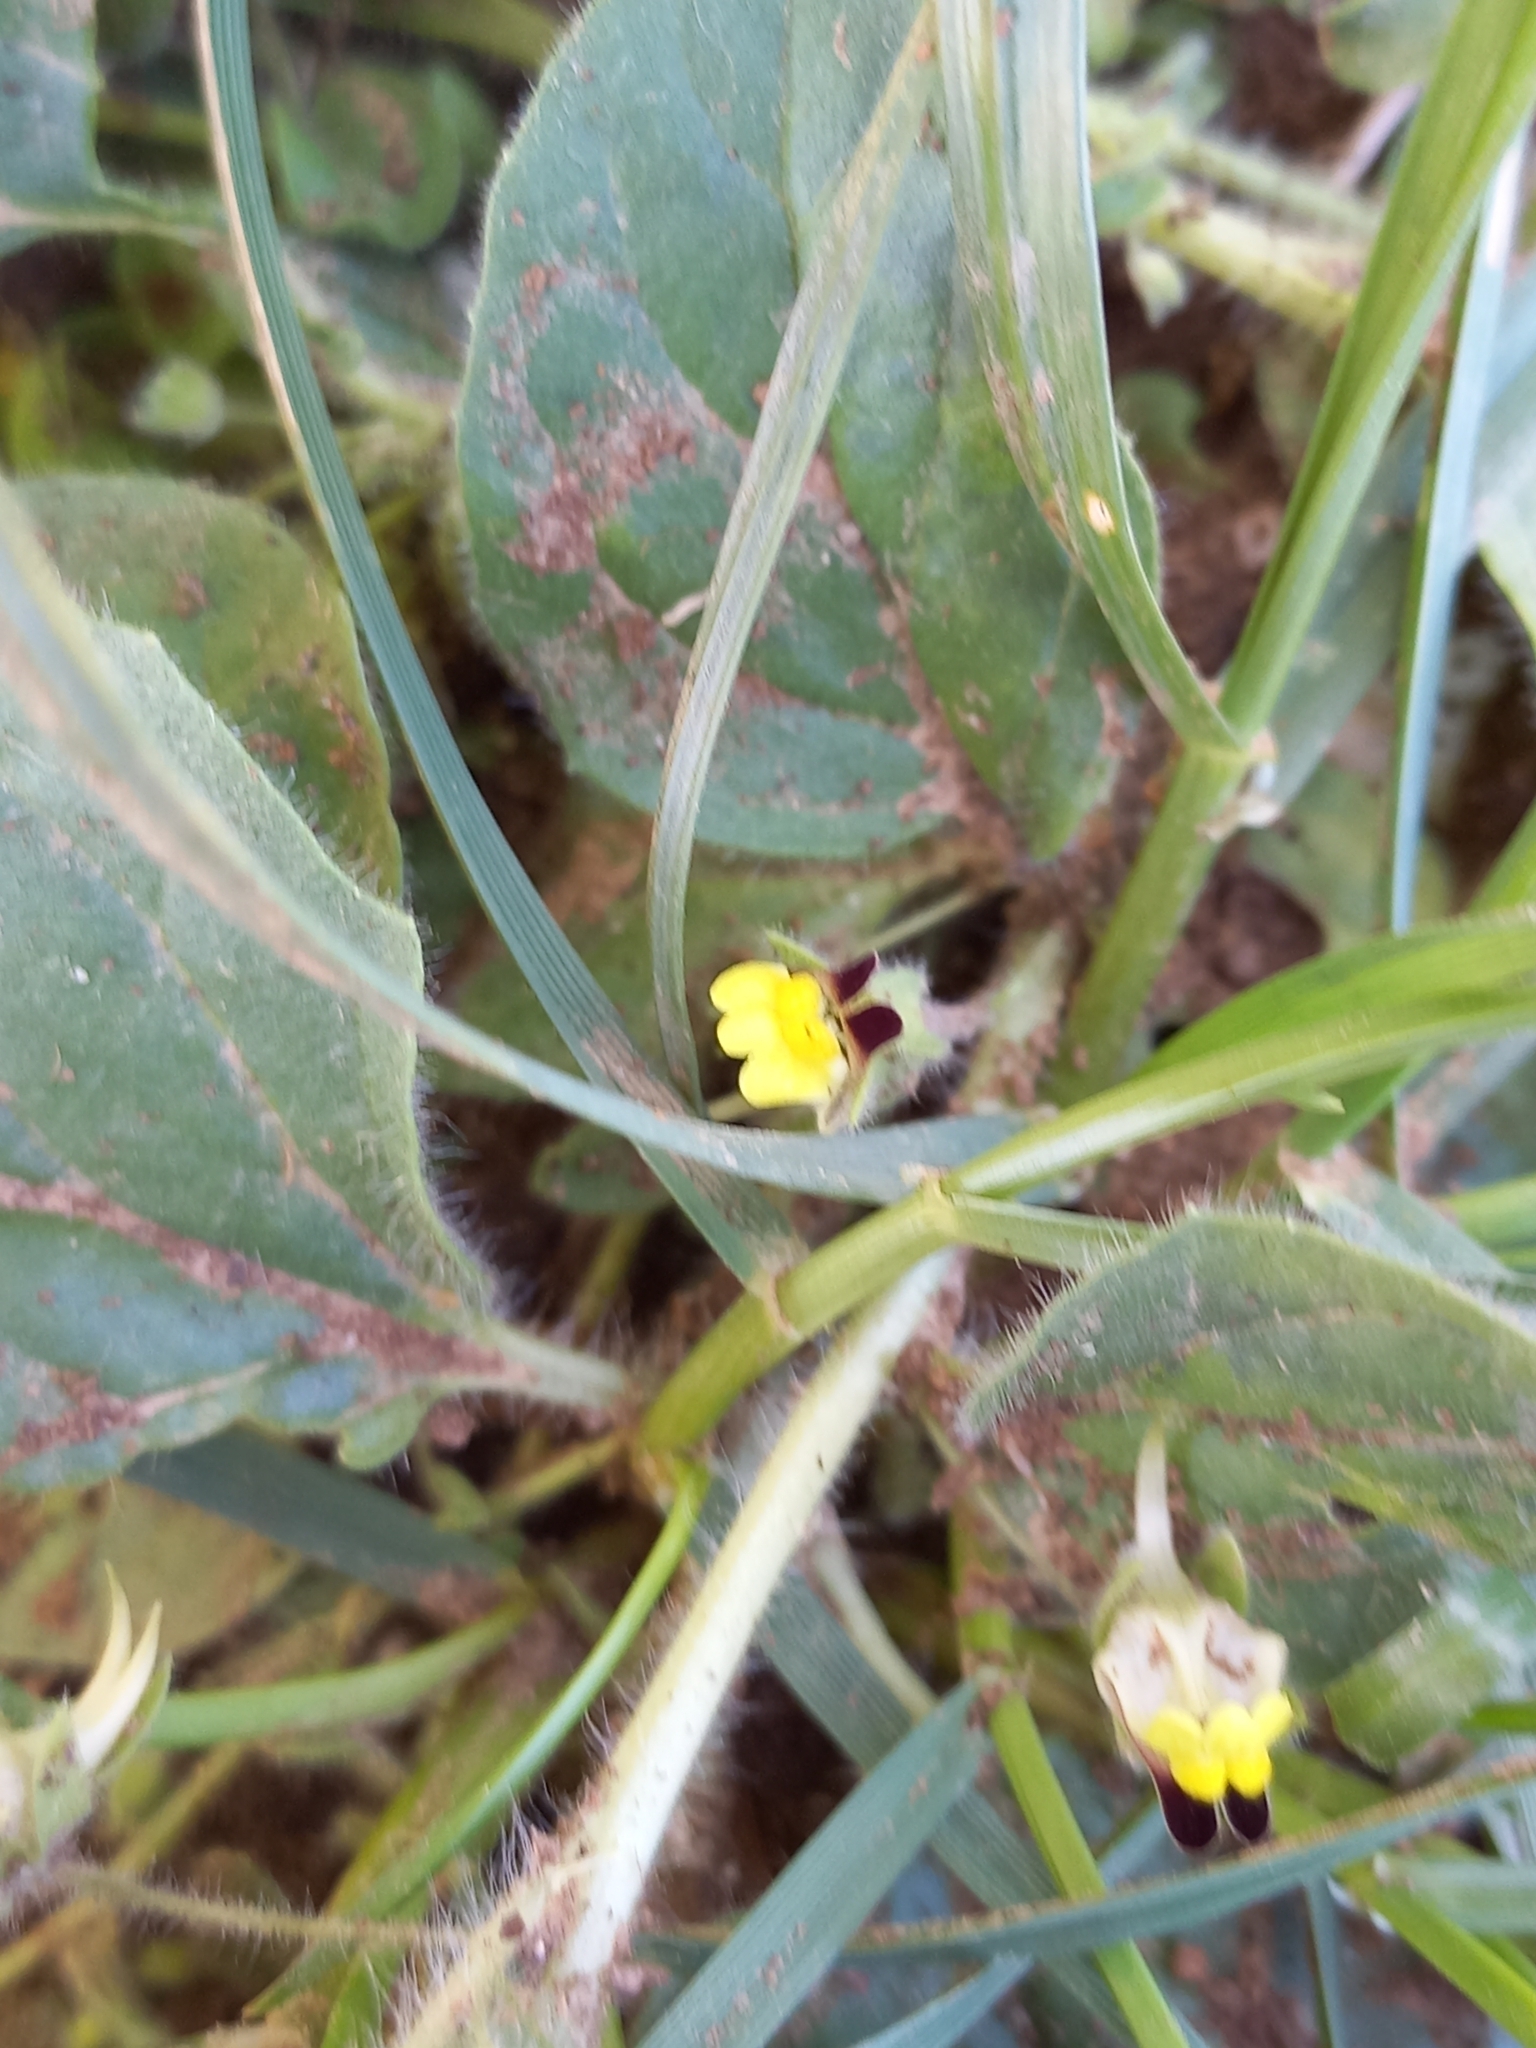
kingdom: Plantae
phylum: Tracheophyta
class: Magnoliopsida
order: Lamiales
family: Plantaginaceae
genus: Kickxia
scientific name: Kickxia spuria
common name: Round-leaved fluellen
